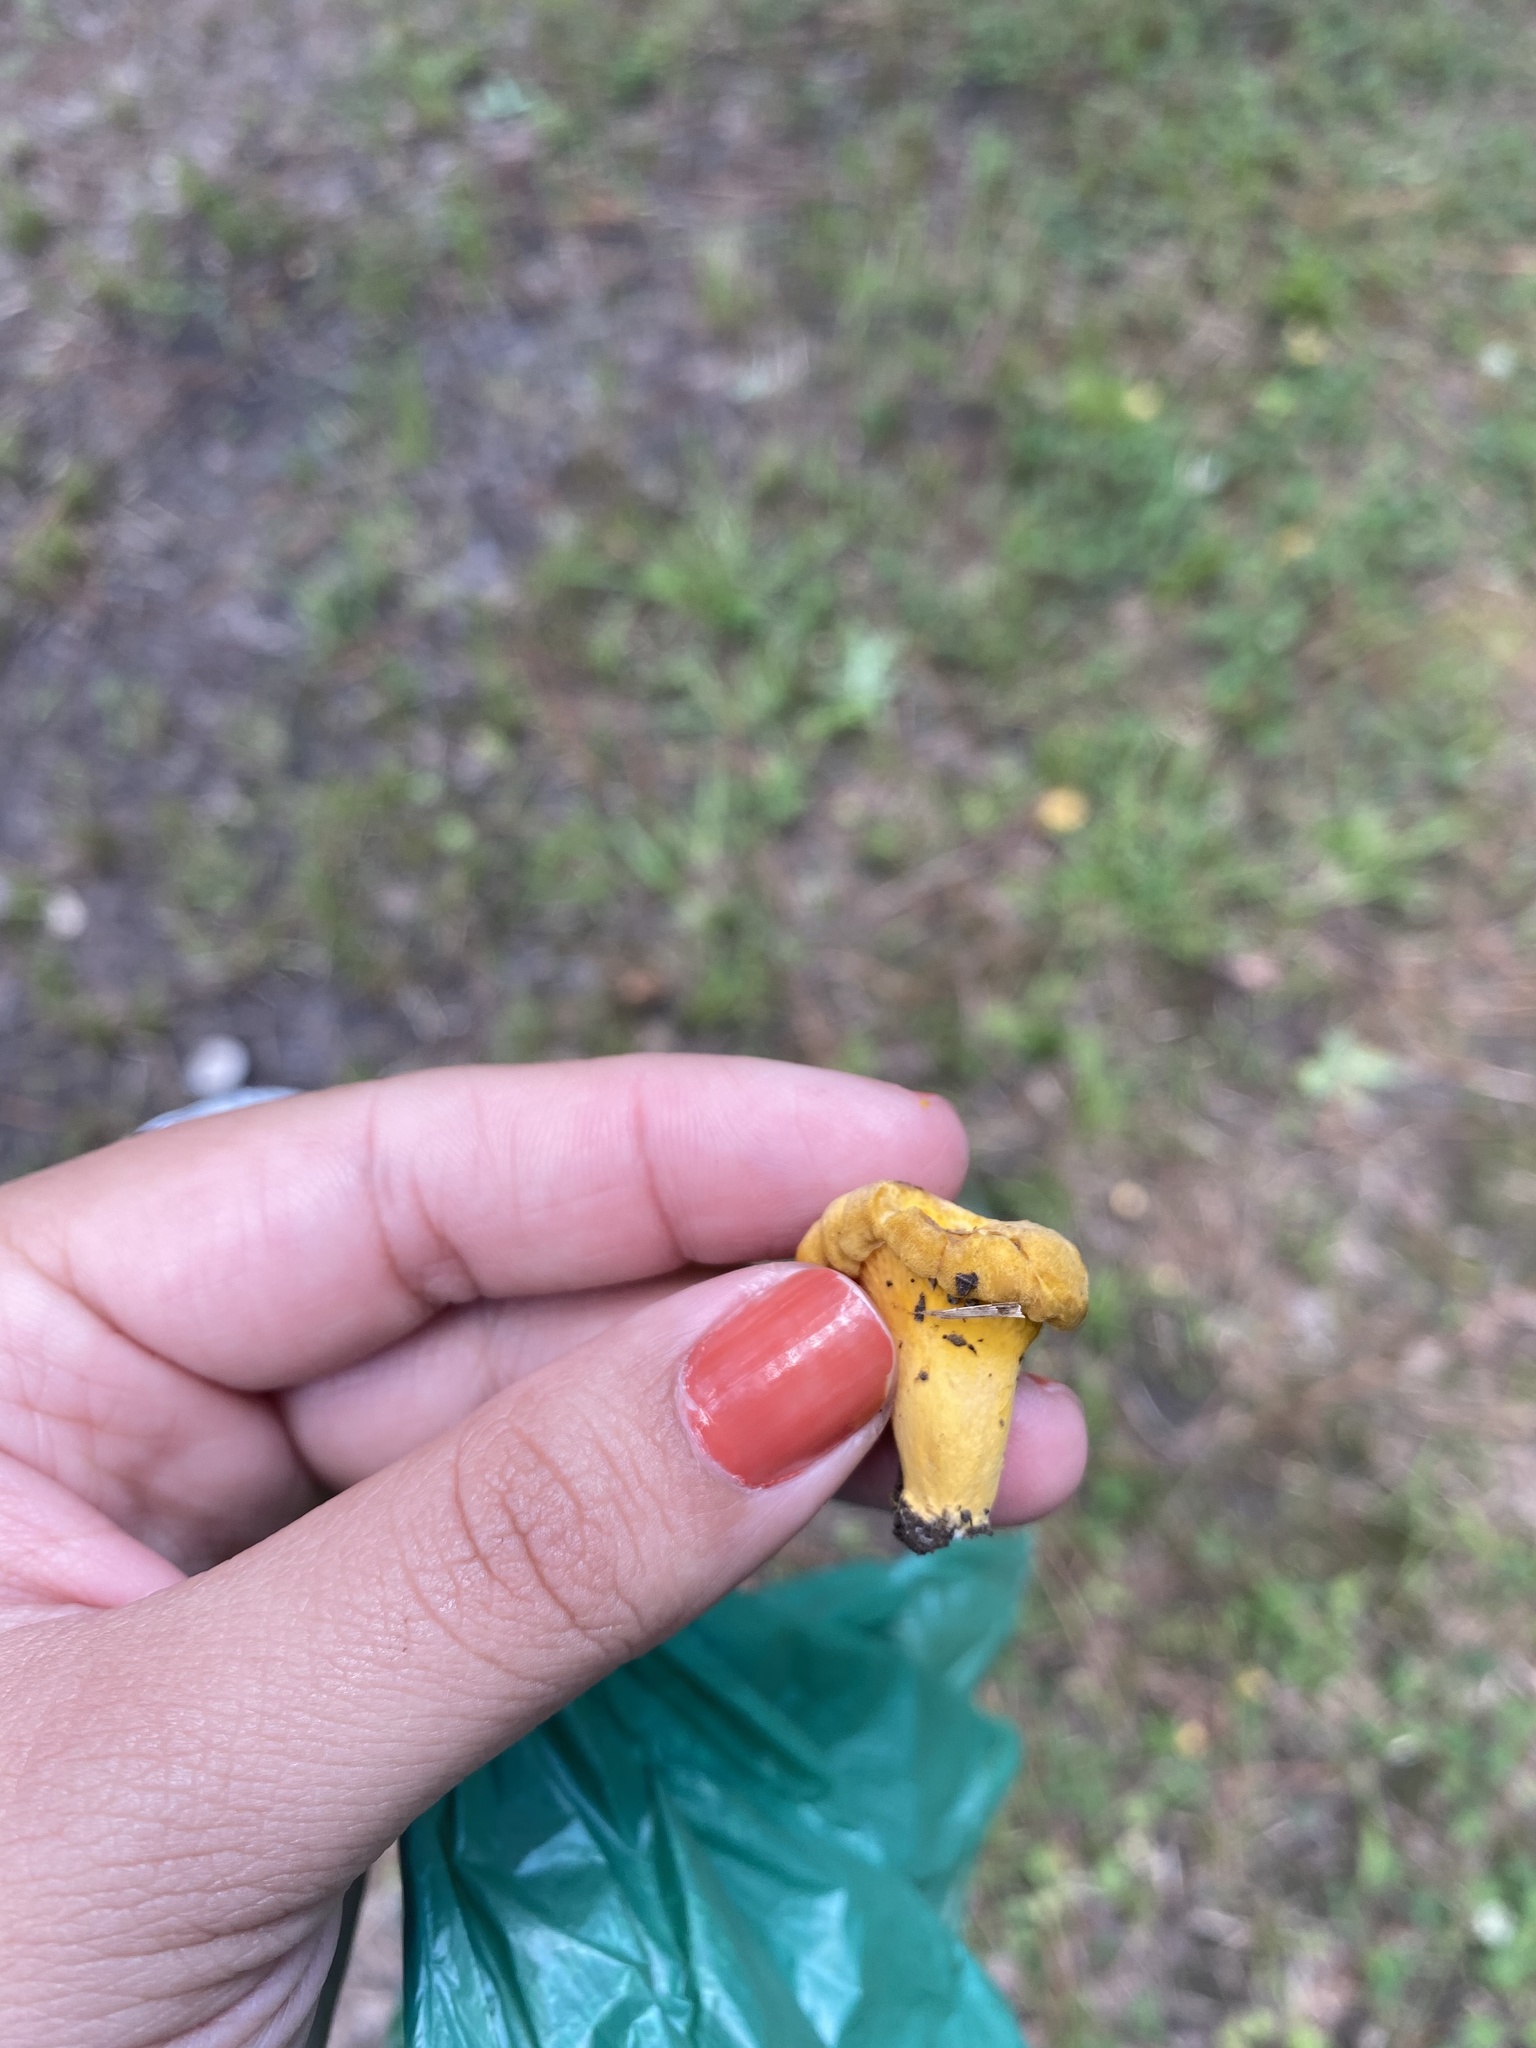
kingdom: Fungi
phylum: Basidiomycota
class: Agaricomycetes
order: Cantharellales
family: Hydnaceae
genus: Cantharellus
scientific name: Cantharellus lateritius
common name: Smooth chanterelle
